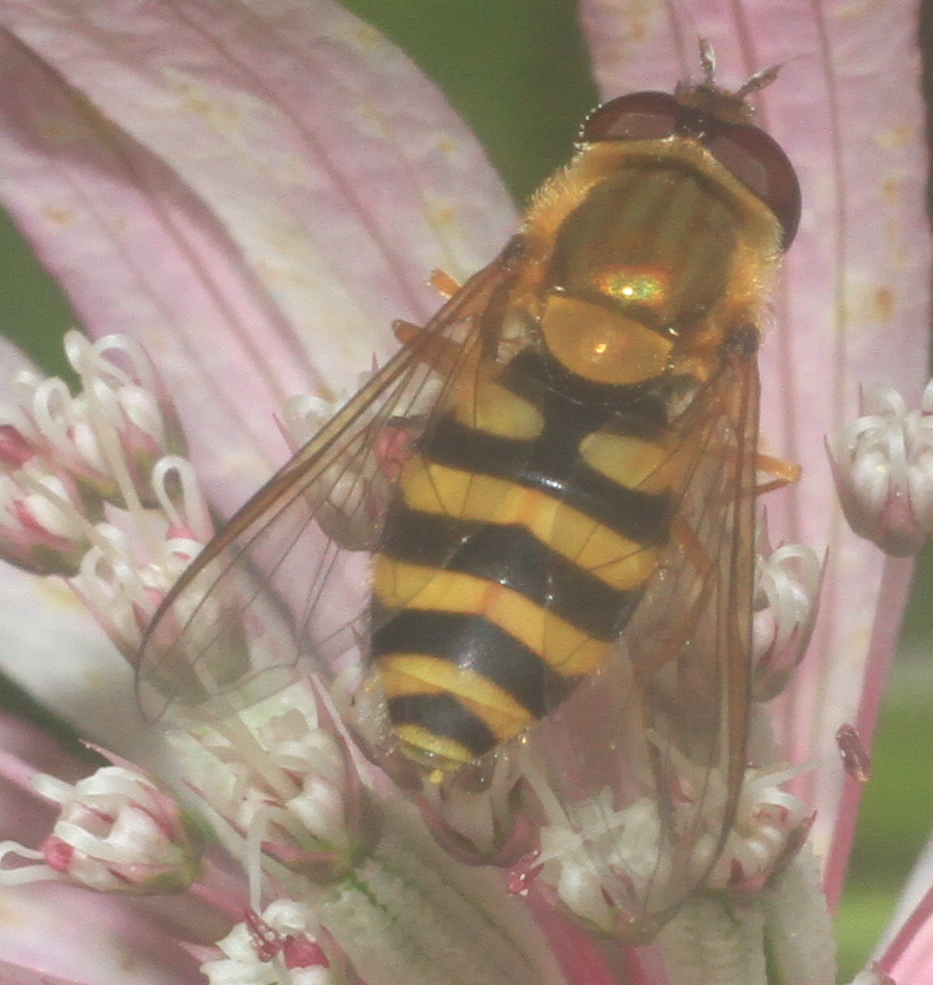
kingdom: Animalia
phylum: Arthropoda
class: Insecta
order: Diptera
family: Syrphidae
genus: Syrphus
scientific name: Syrphus ribesii
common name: Common flower fly
